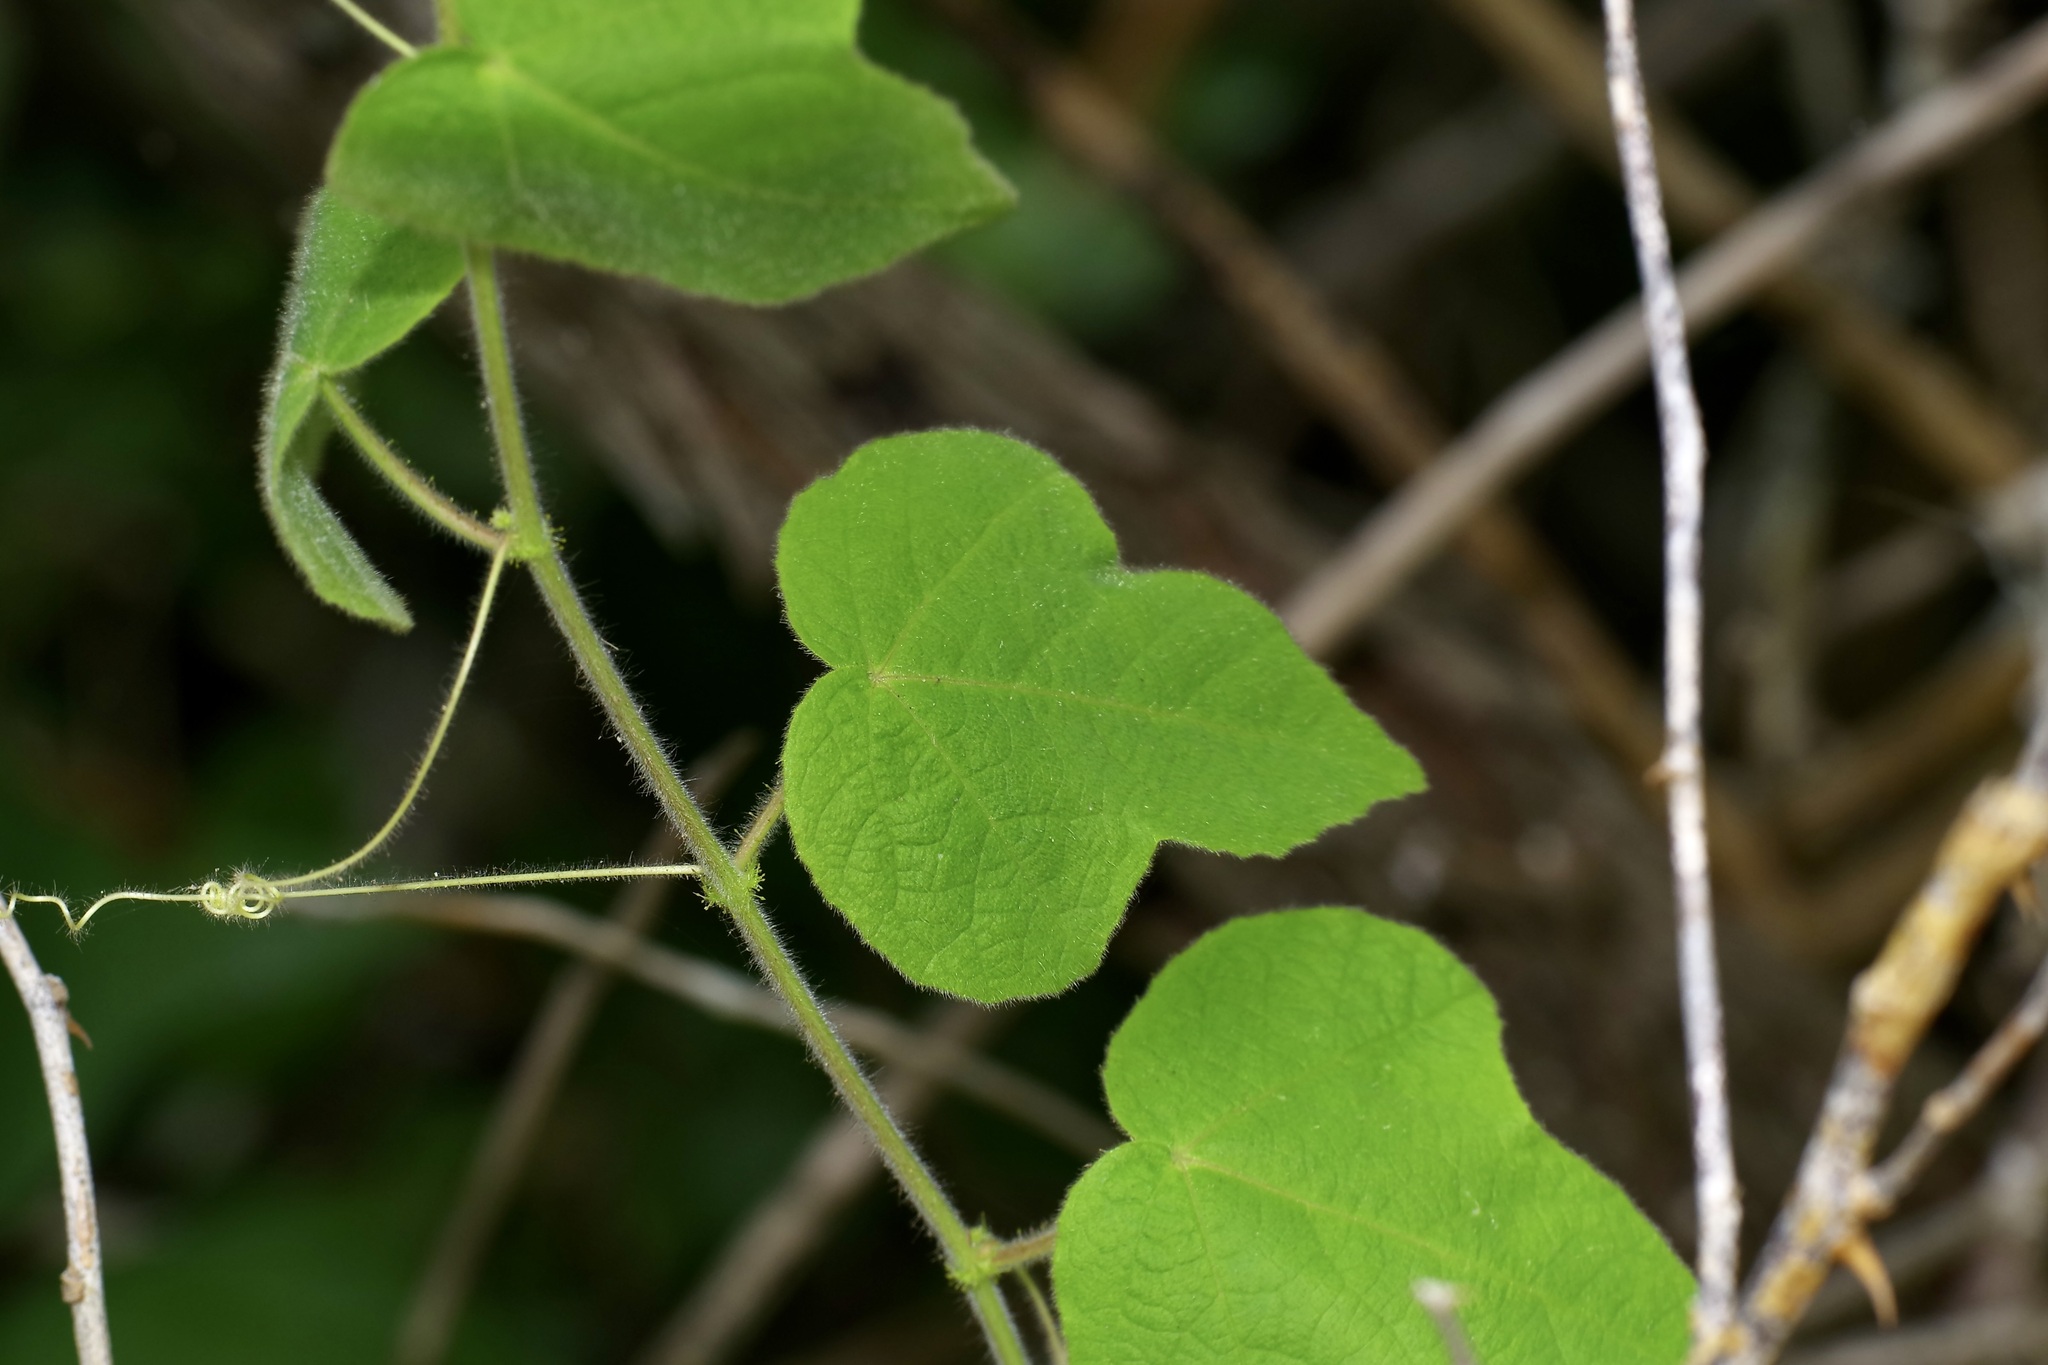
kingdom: Plantae
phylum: Tracheophyta
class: Magnoliopsida
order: Malpighiales
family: Passifloraceae
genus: Passiflora
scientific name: Passiflora foetida
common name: Fetid passionflower
